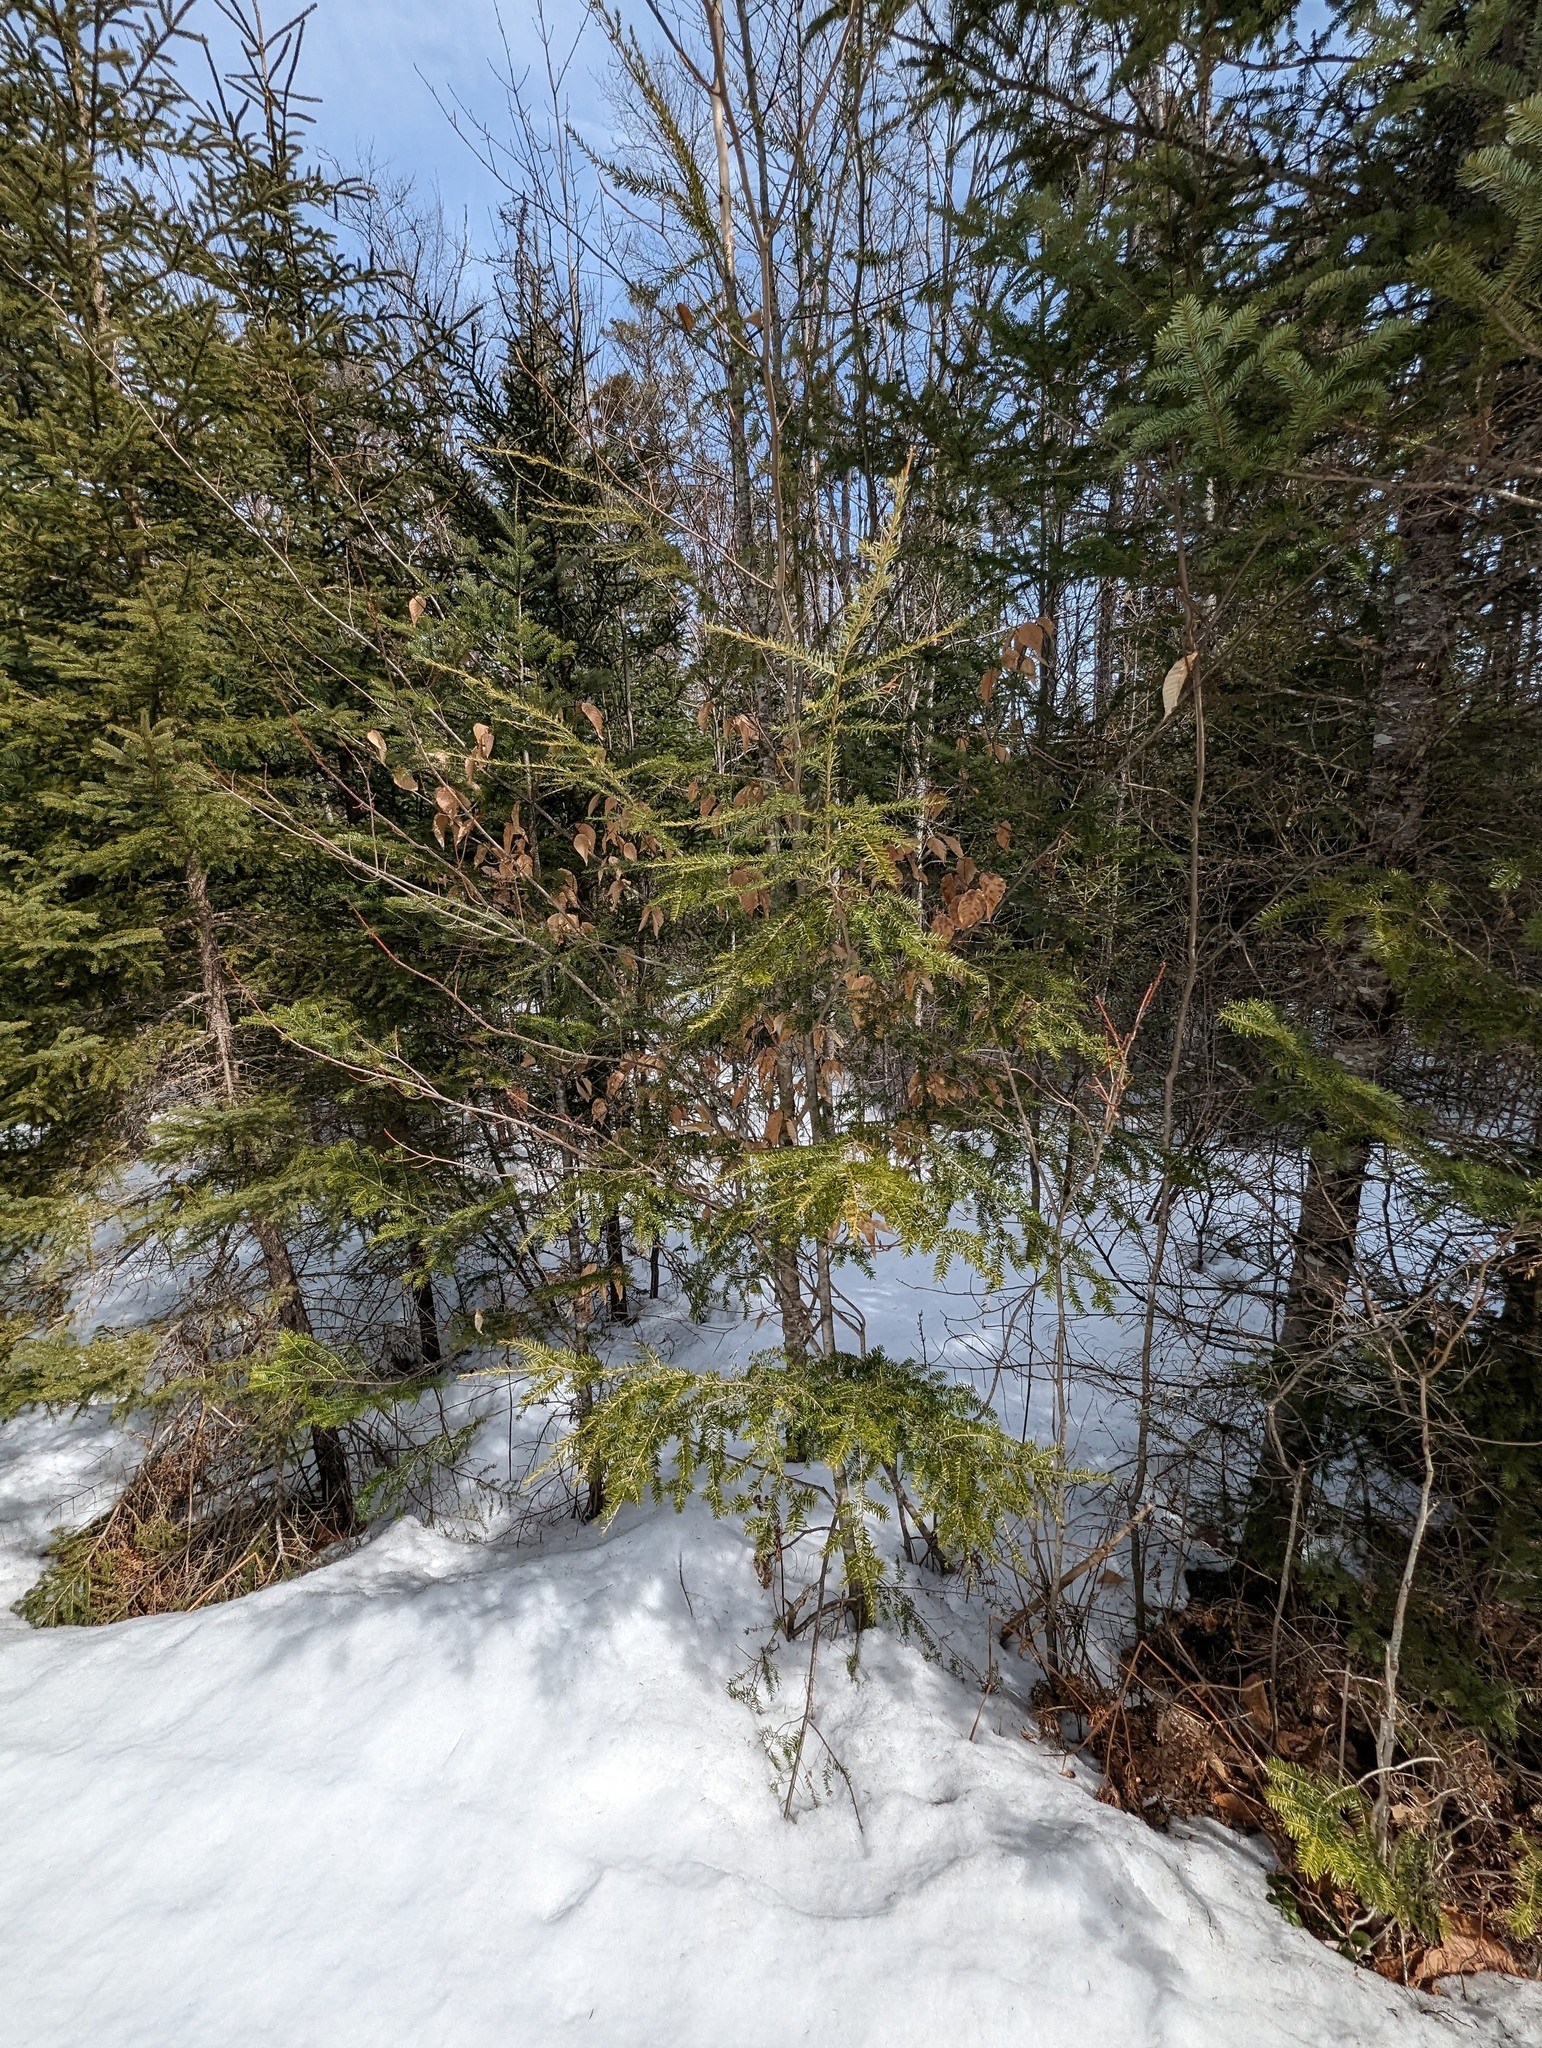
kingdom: Plantae
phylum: Tracheophyta
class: Pinopsida
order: Pinales
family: Pinaceae
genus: Tsuga
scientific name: Tsuga canadensis
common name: Eastern hemlock
